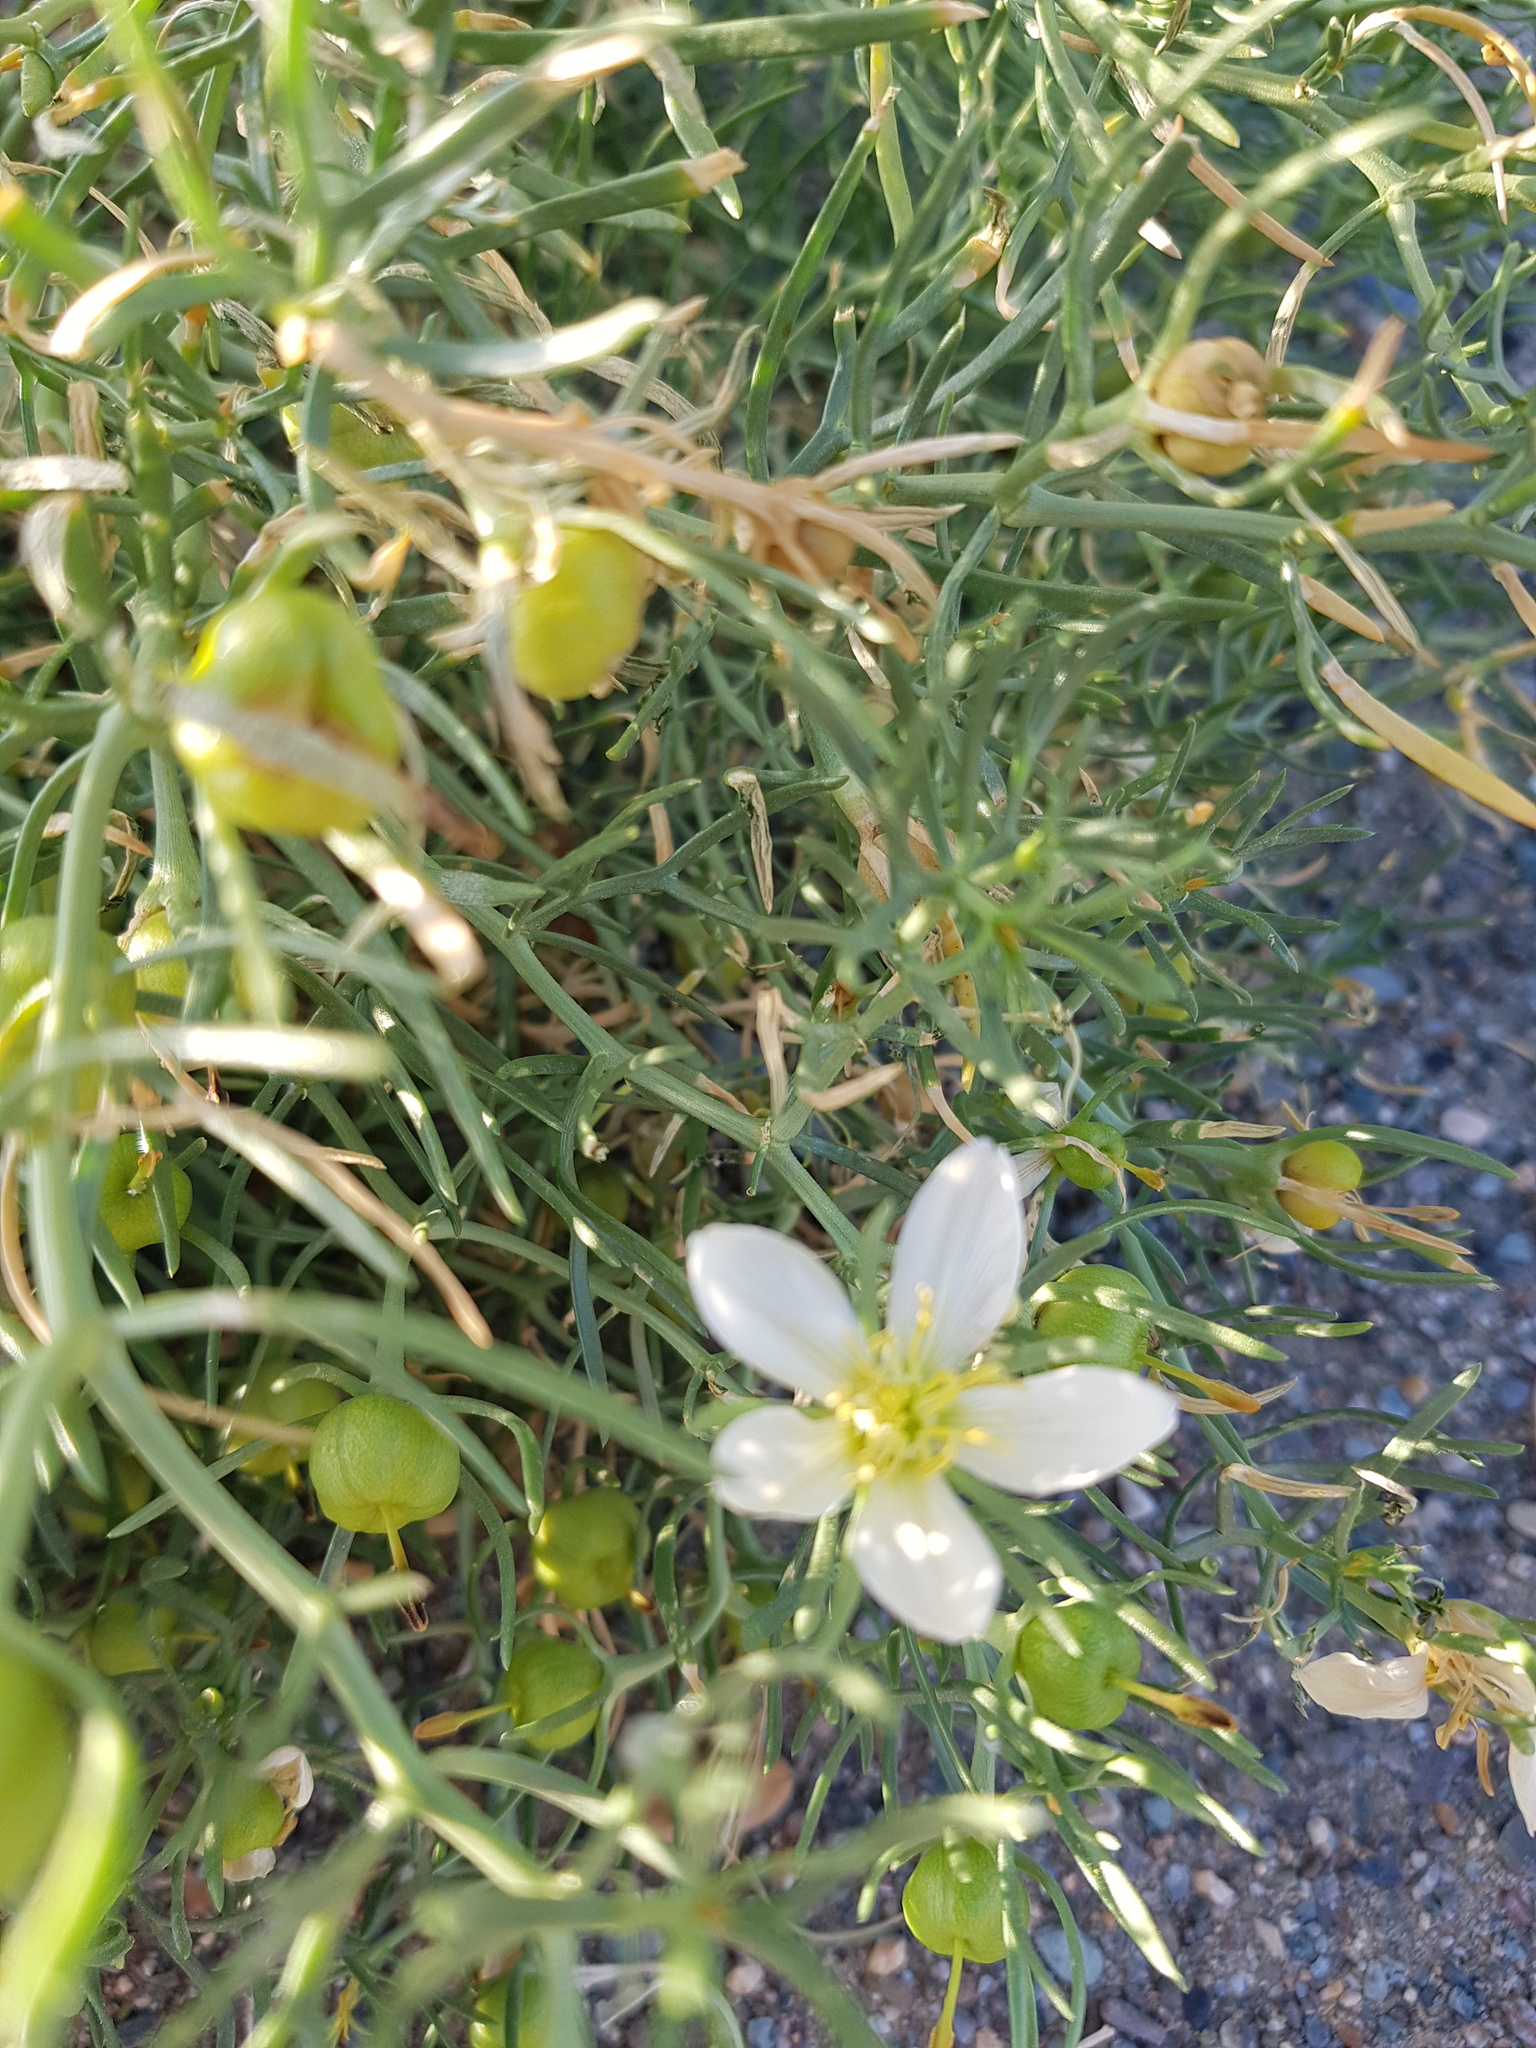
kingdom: Plantae
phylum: Tracheophyta
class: Magnoliopsida
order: Sapindales
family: Tetradiclidaceae
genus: Peganum
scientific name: Peganum harmala
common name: Harmal peganum
